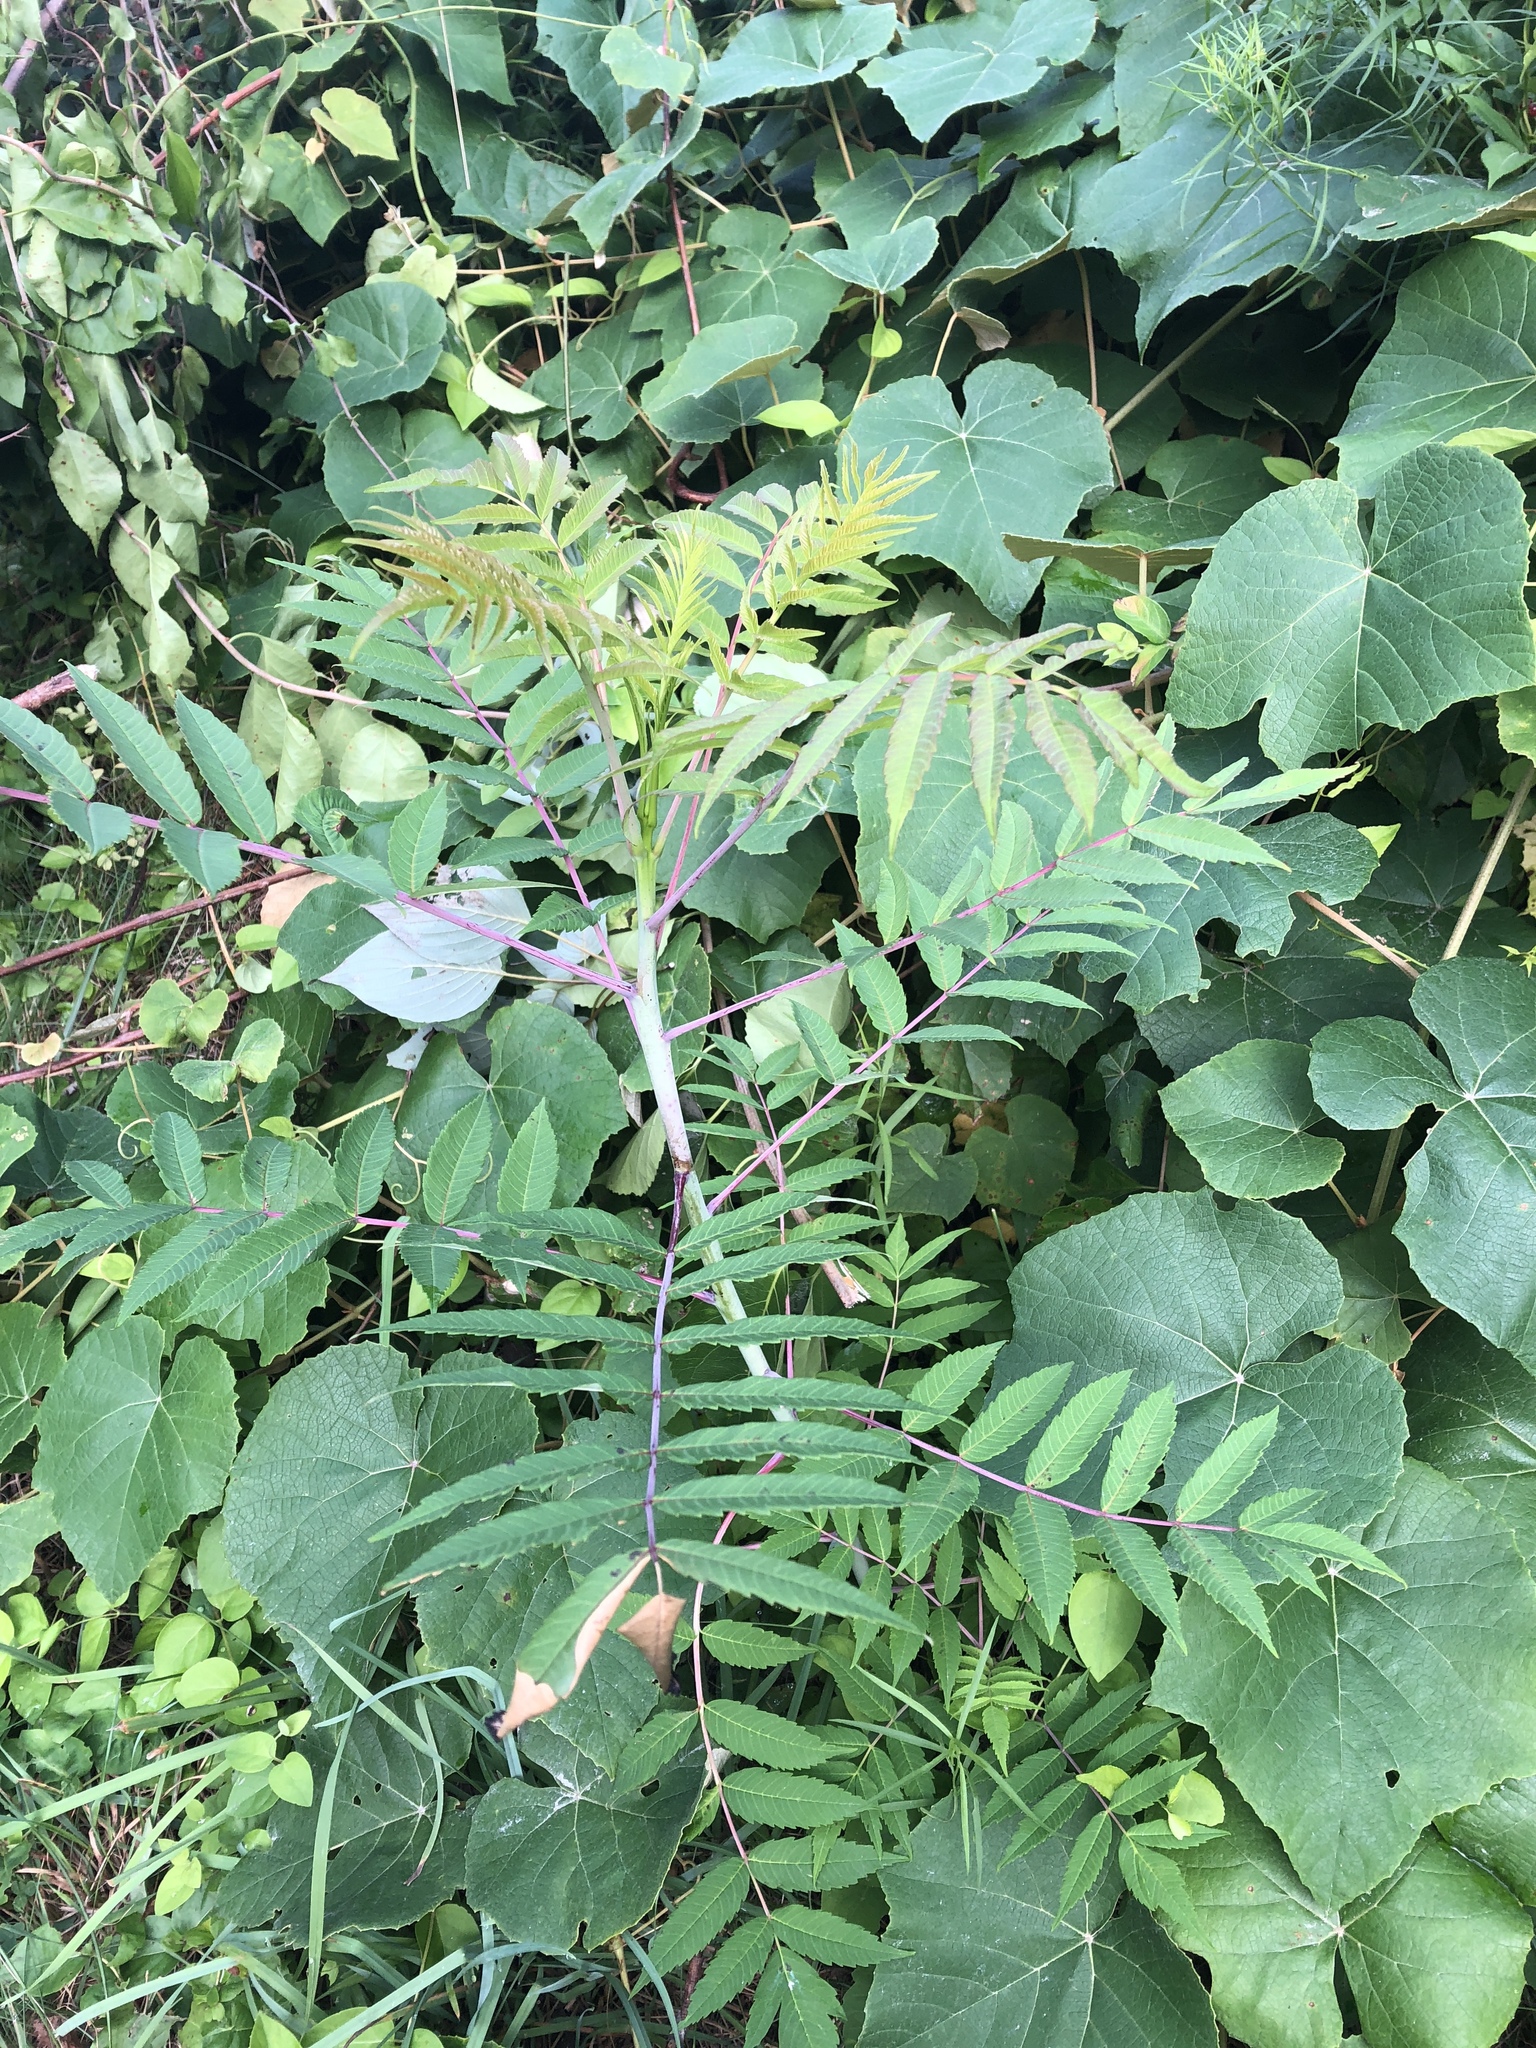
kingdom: Plantae
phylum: Tracheophyta
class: Magnoliopsida
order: Sapindales
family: Anacardiaceae
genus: Rhus
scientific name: Rhus glabra
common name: Scarlet sumac
